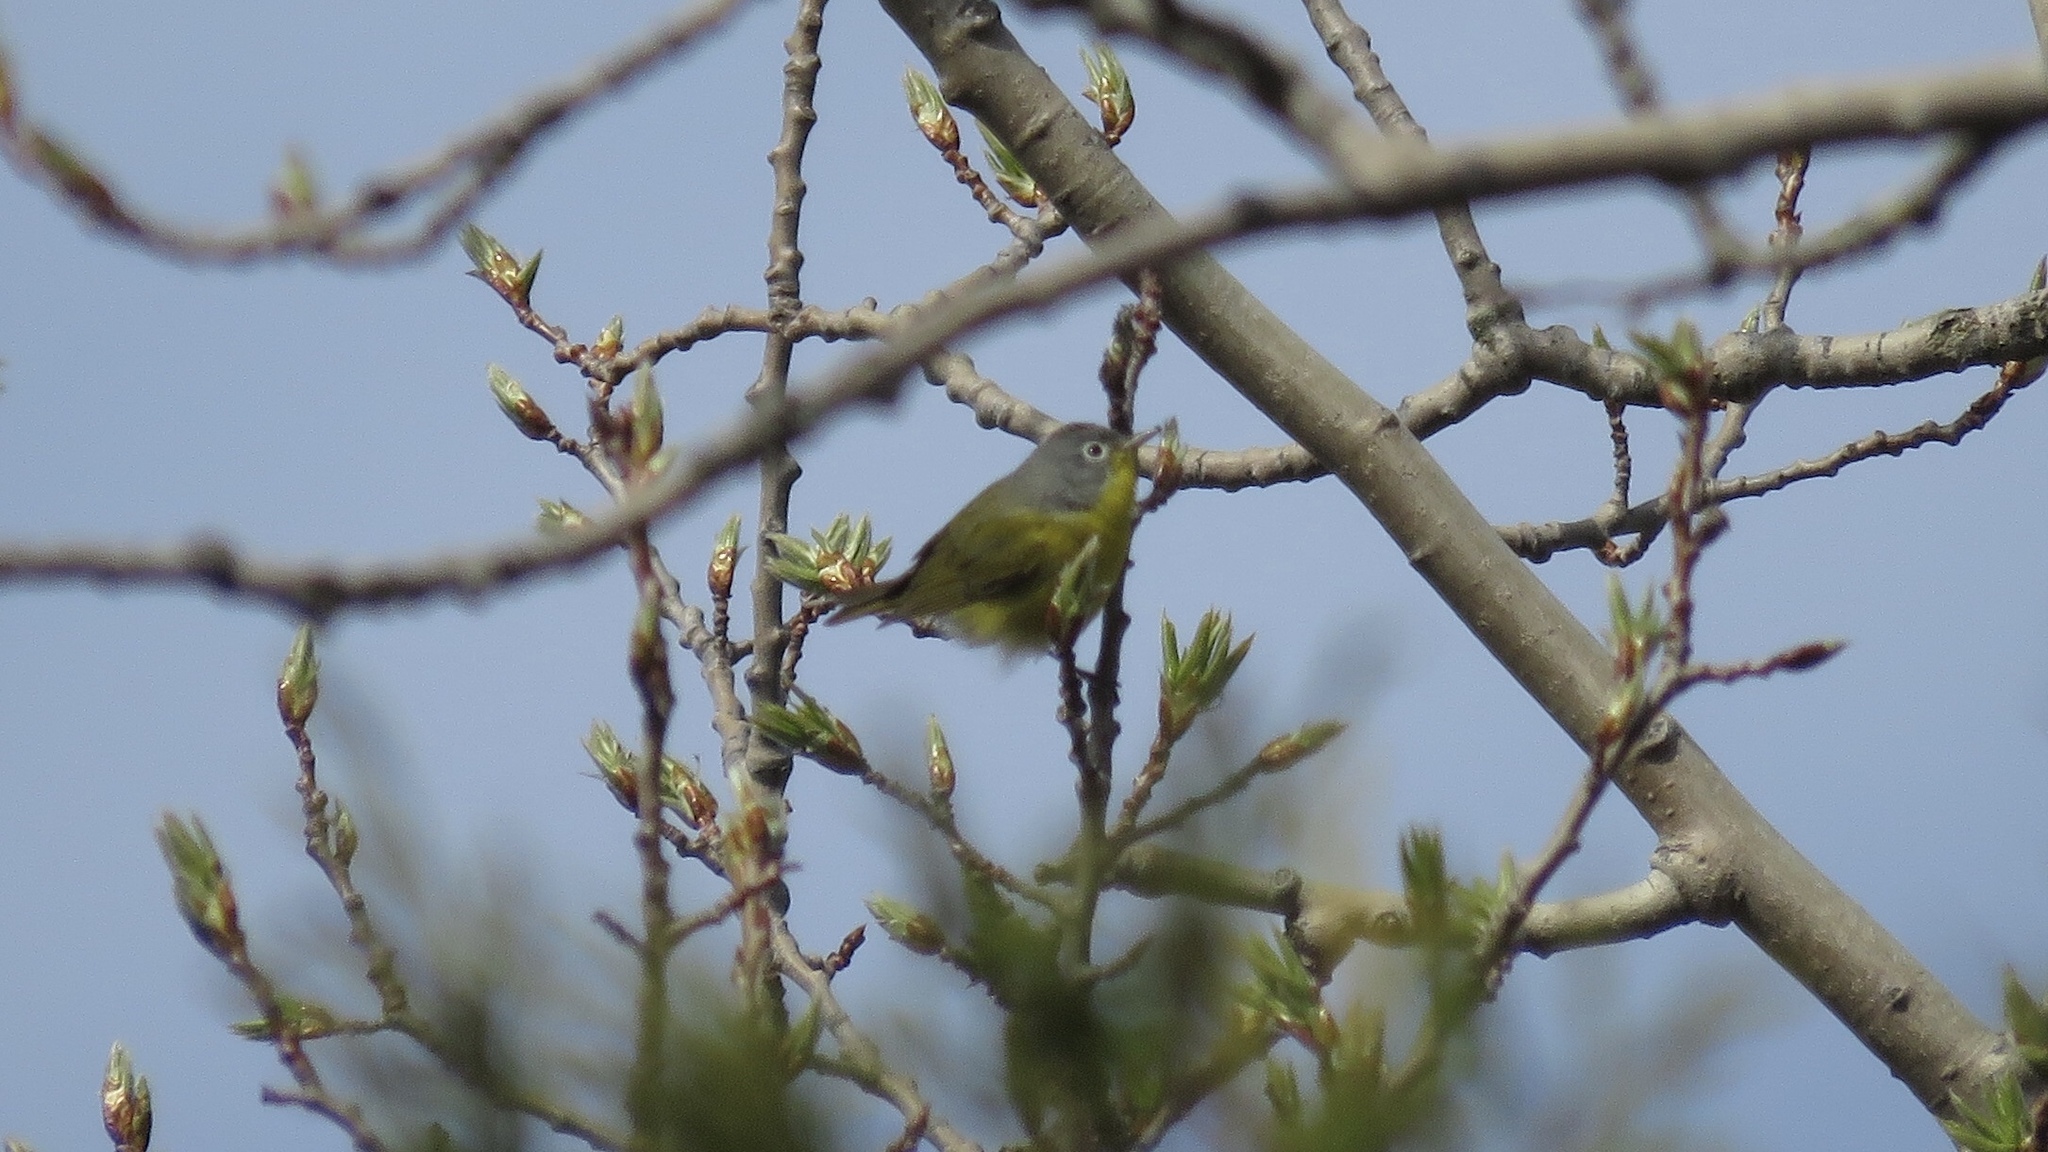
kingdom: Animalia
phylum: Chordata
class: Aves
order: Passeriformes
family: Parulidae
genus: Leiothlypis
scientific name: Leiothlypis ruficapilla
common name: Nashville warbler
